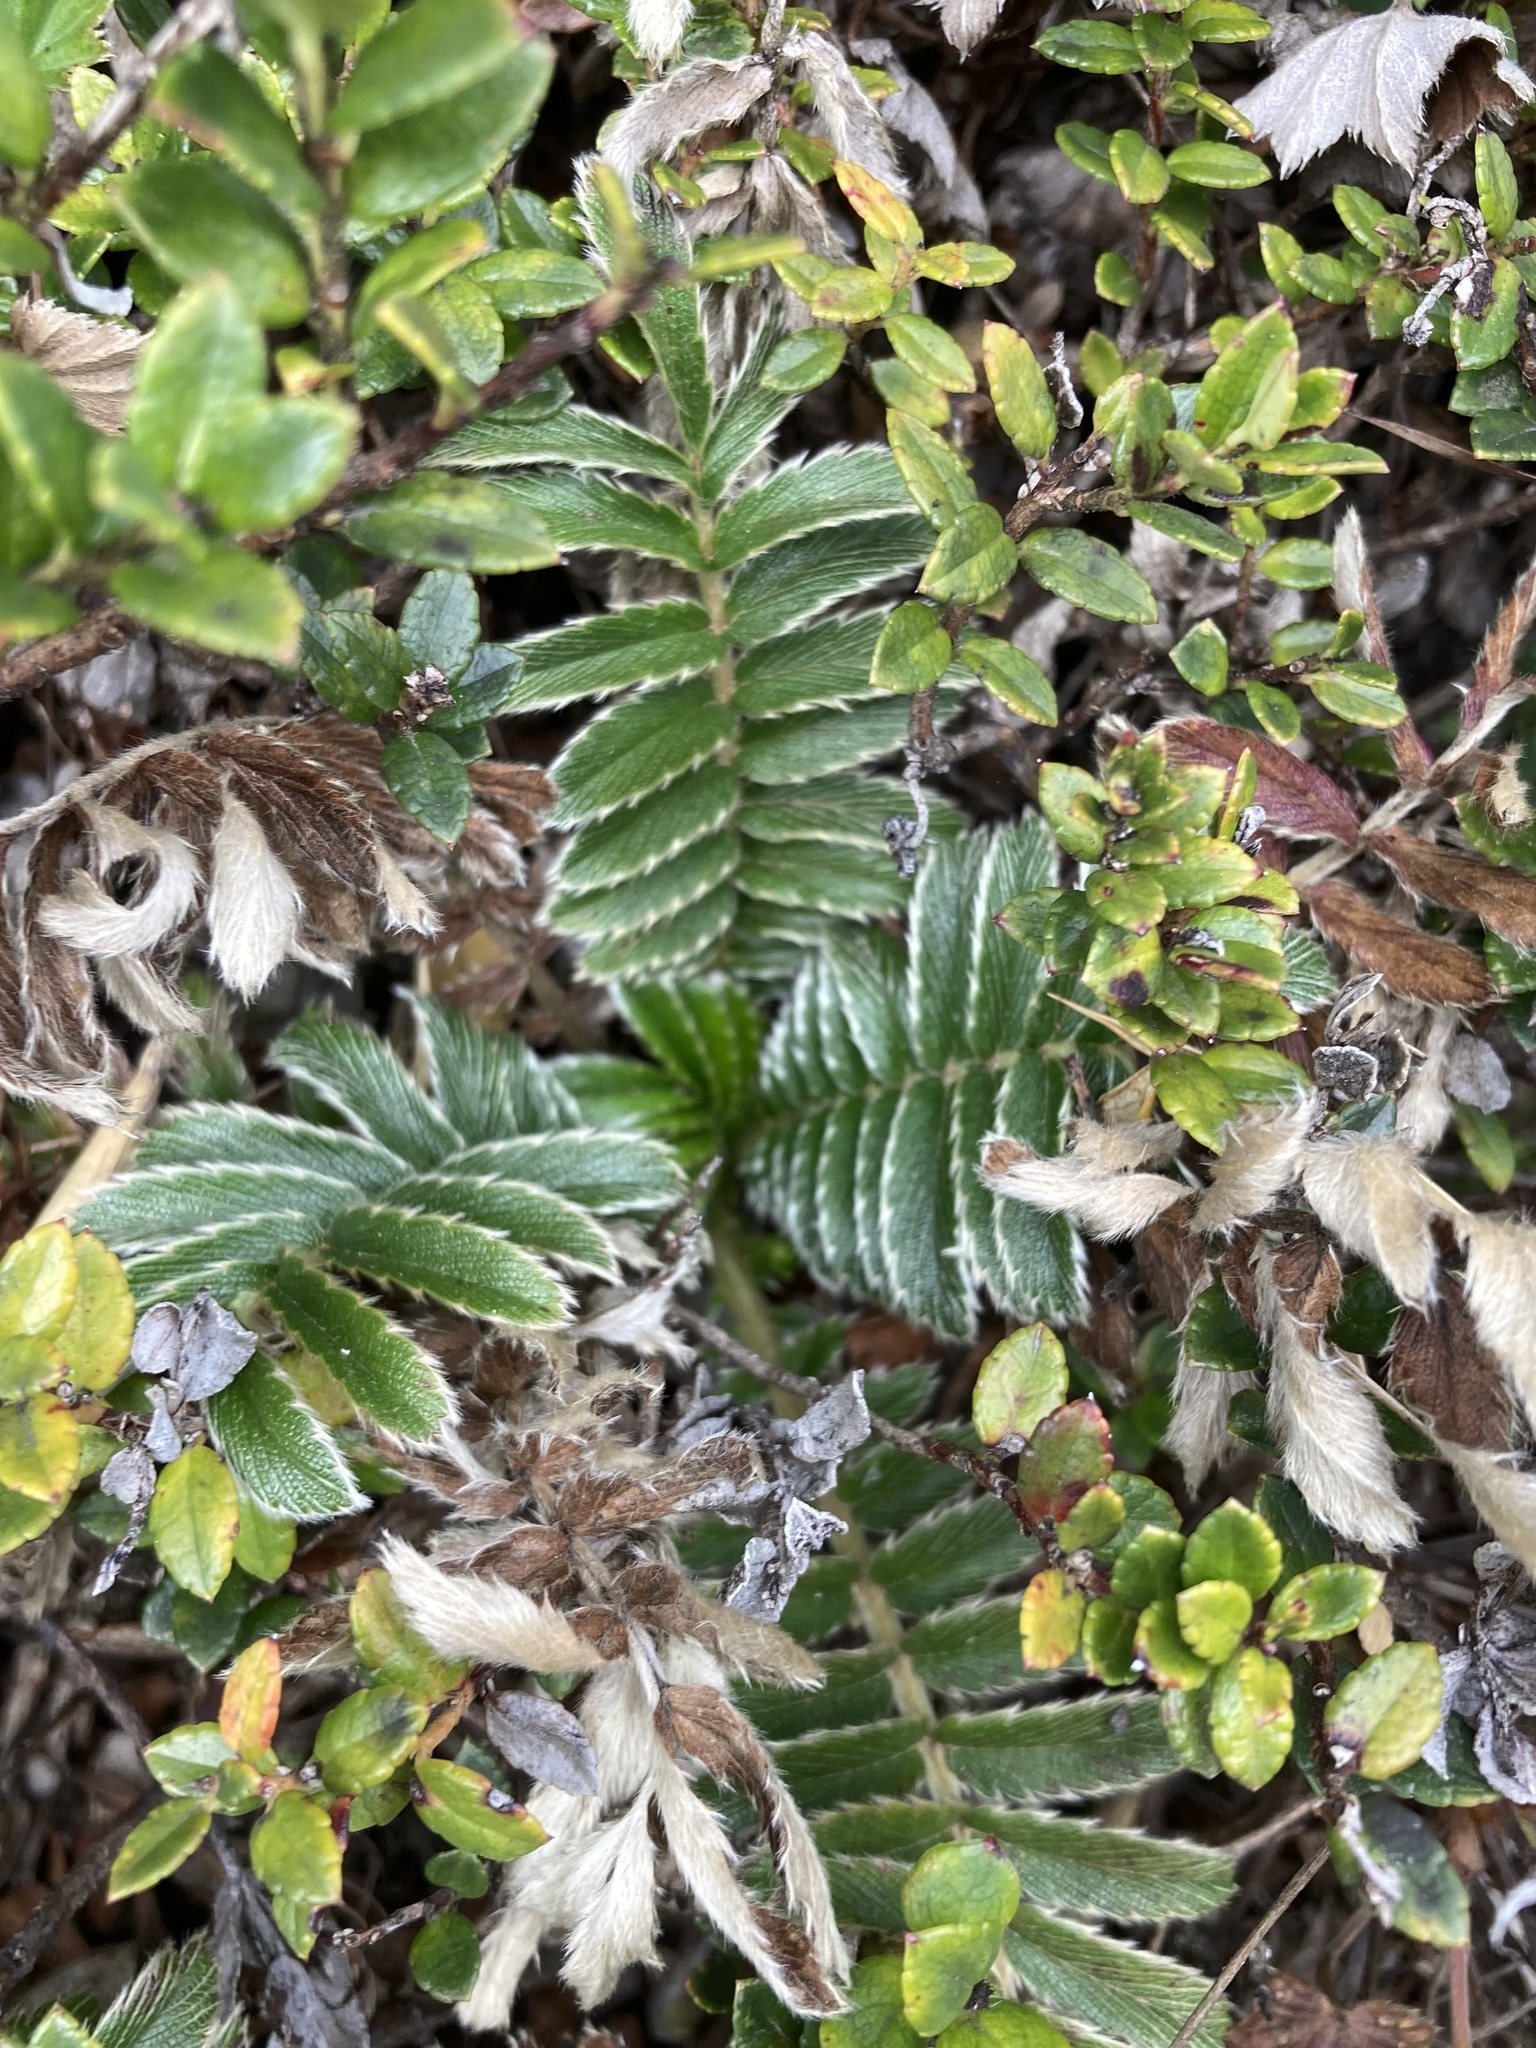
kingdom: Plantae
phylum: Tracheophyta
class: Magnoliopsida
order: Rosales
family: Rosaceae
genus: Acaena
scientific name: Acaena cylindristachya
